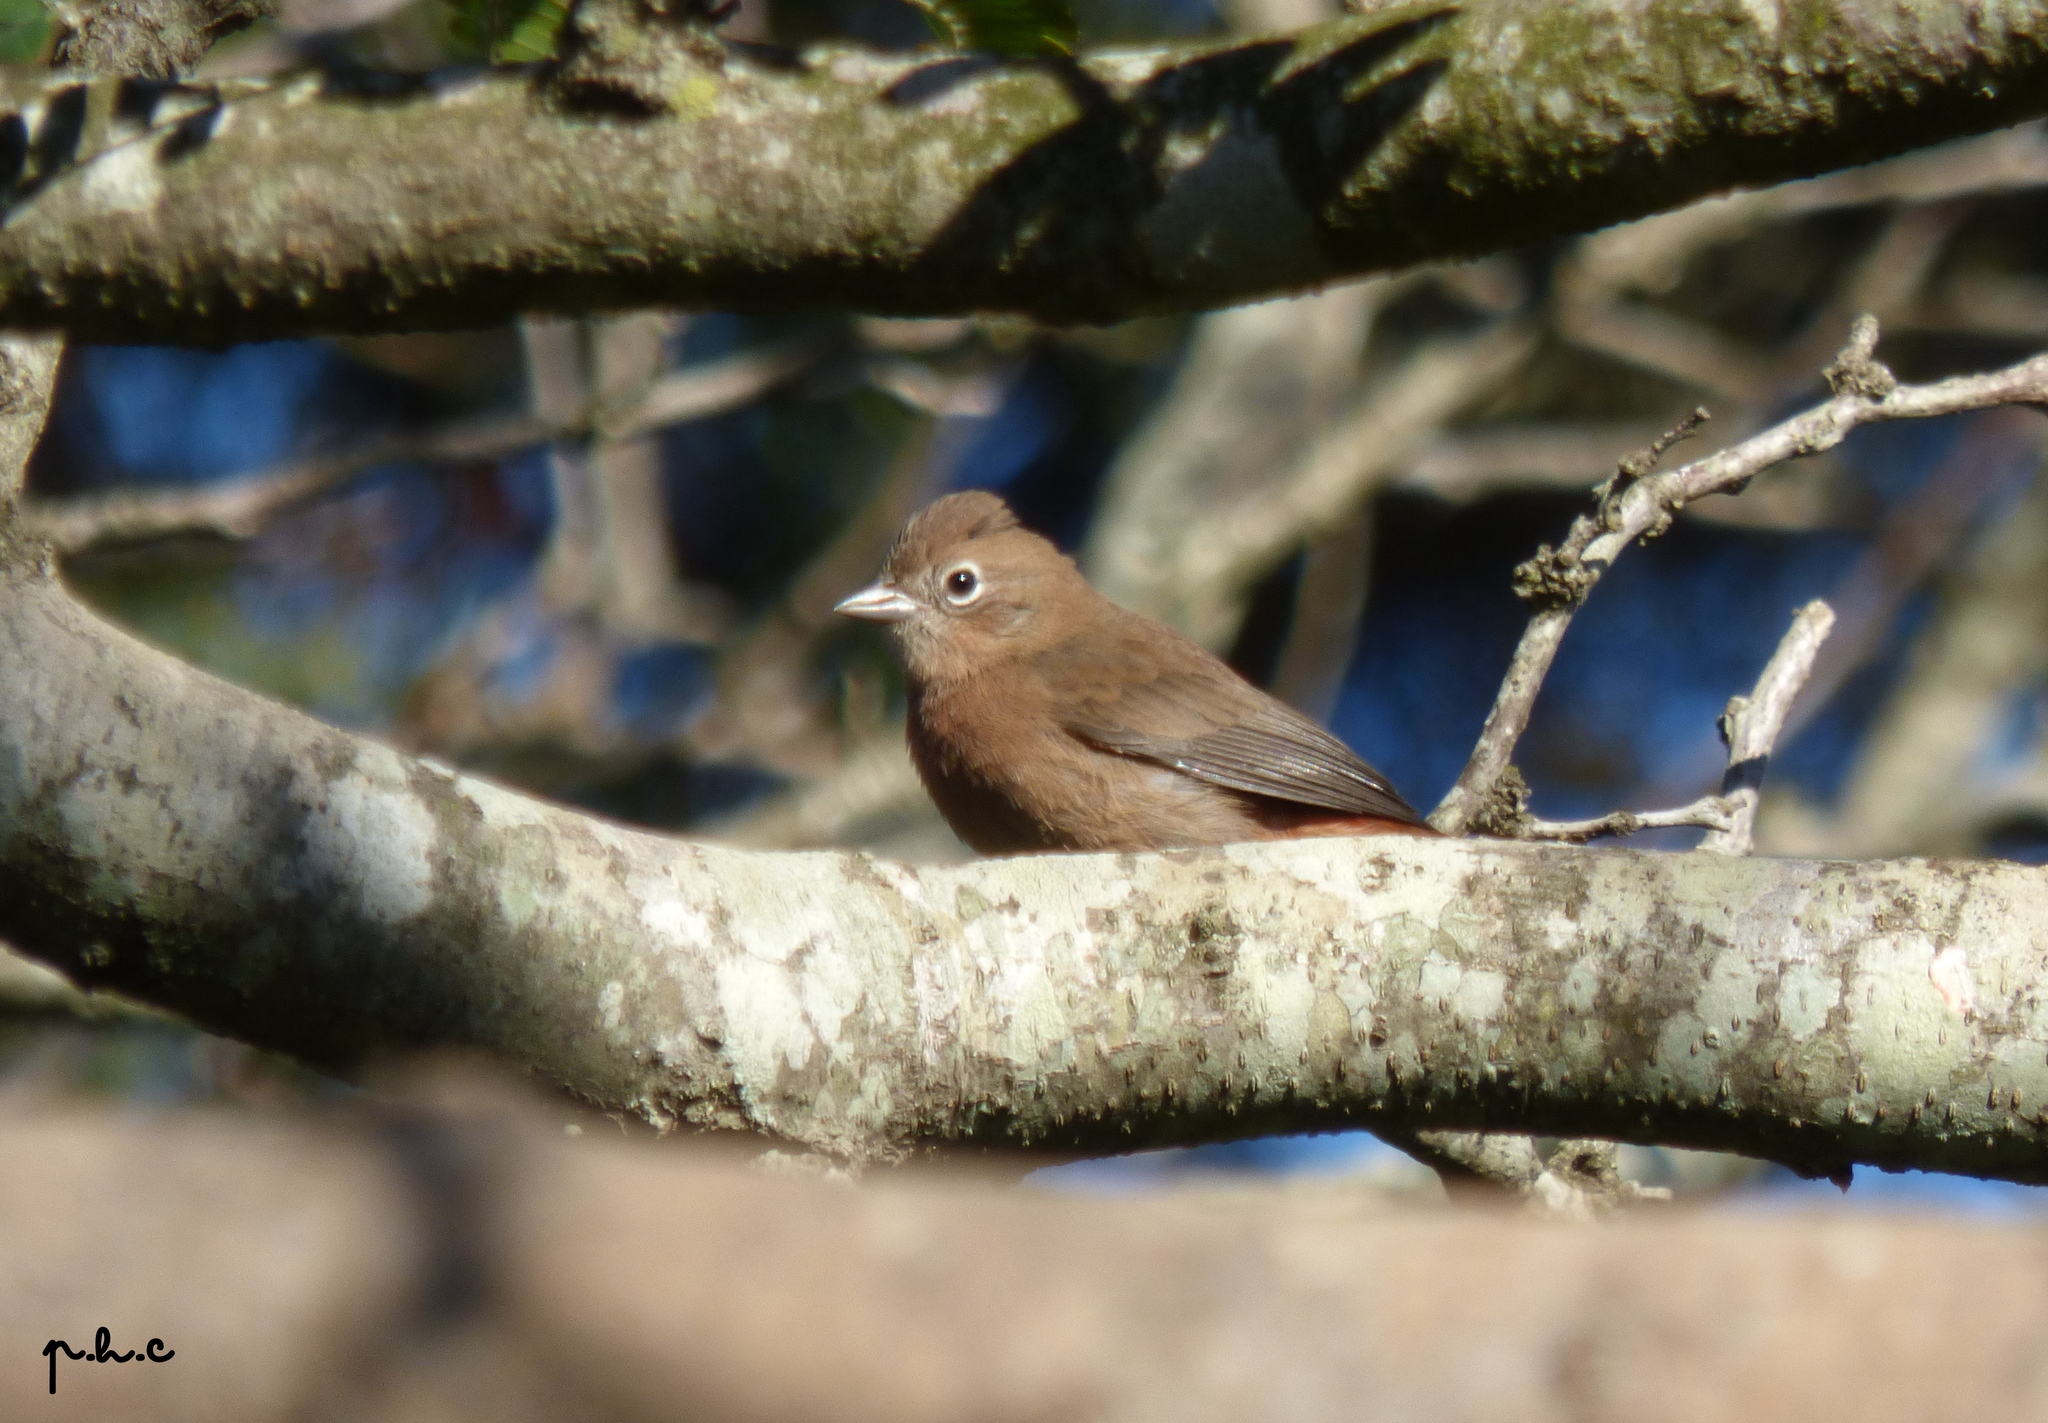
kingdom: Animalia
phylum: Chordata
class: Aves
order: Passeriformes
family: Thraupidae
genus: Coryphospingus
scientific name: Coryphospingus cucullatus
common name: Red pileated finch
